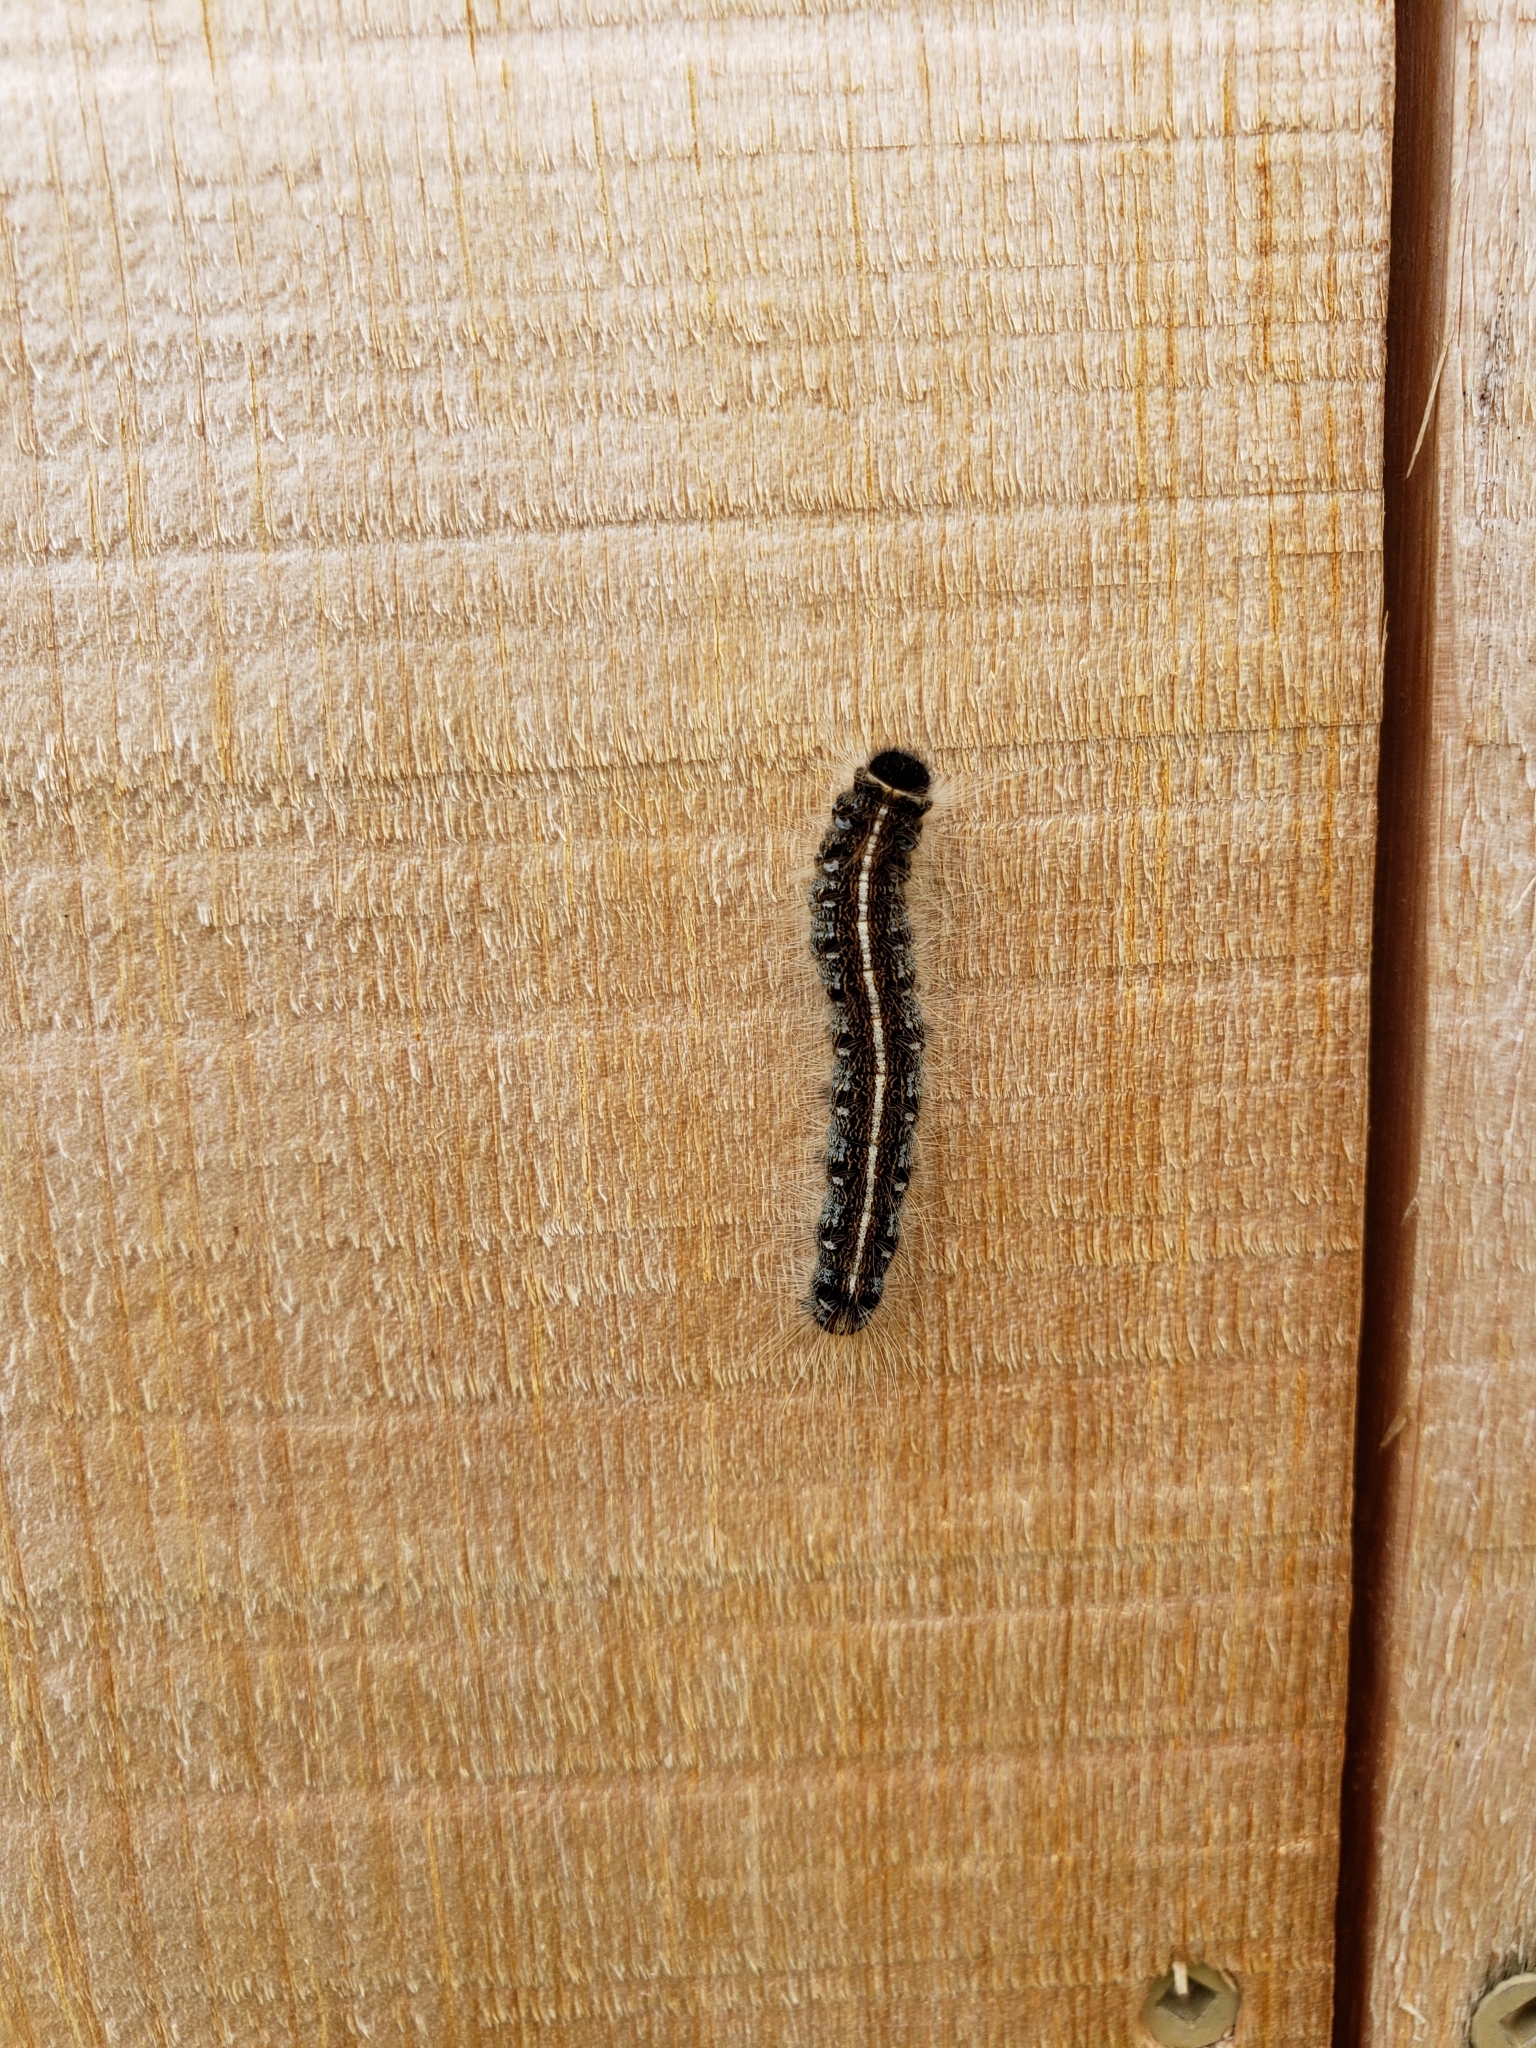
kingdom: Animalia
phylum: Arthropoda
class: Insecta
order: Lepidoptera
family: Lasiocampidae
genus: Malacosoma
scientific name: Malacosoma americana
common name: Eastern tent caterpillar moth
